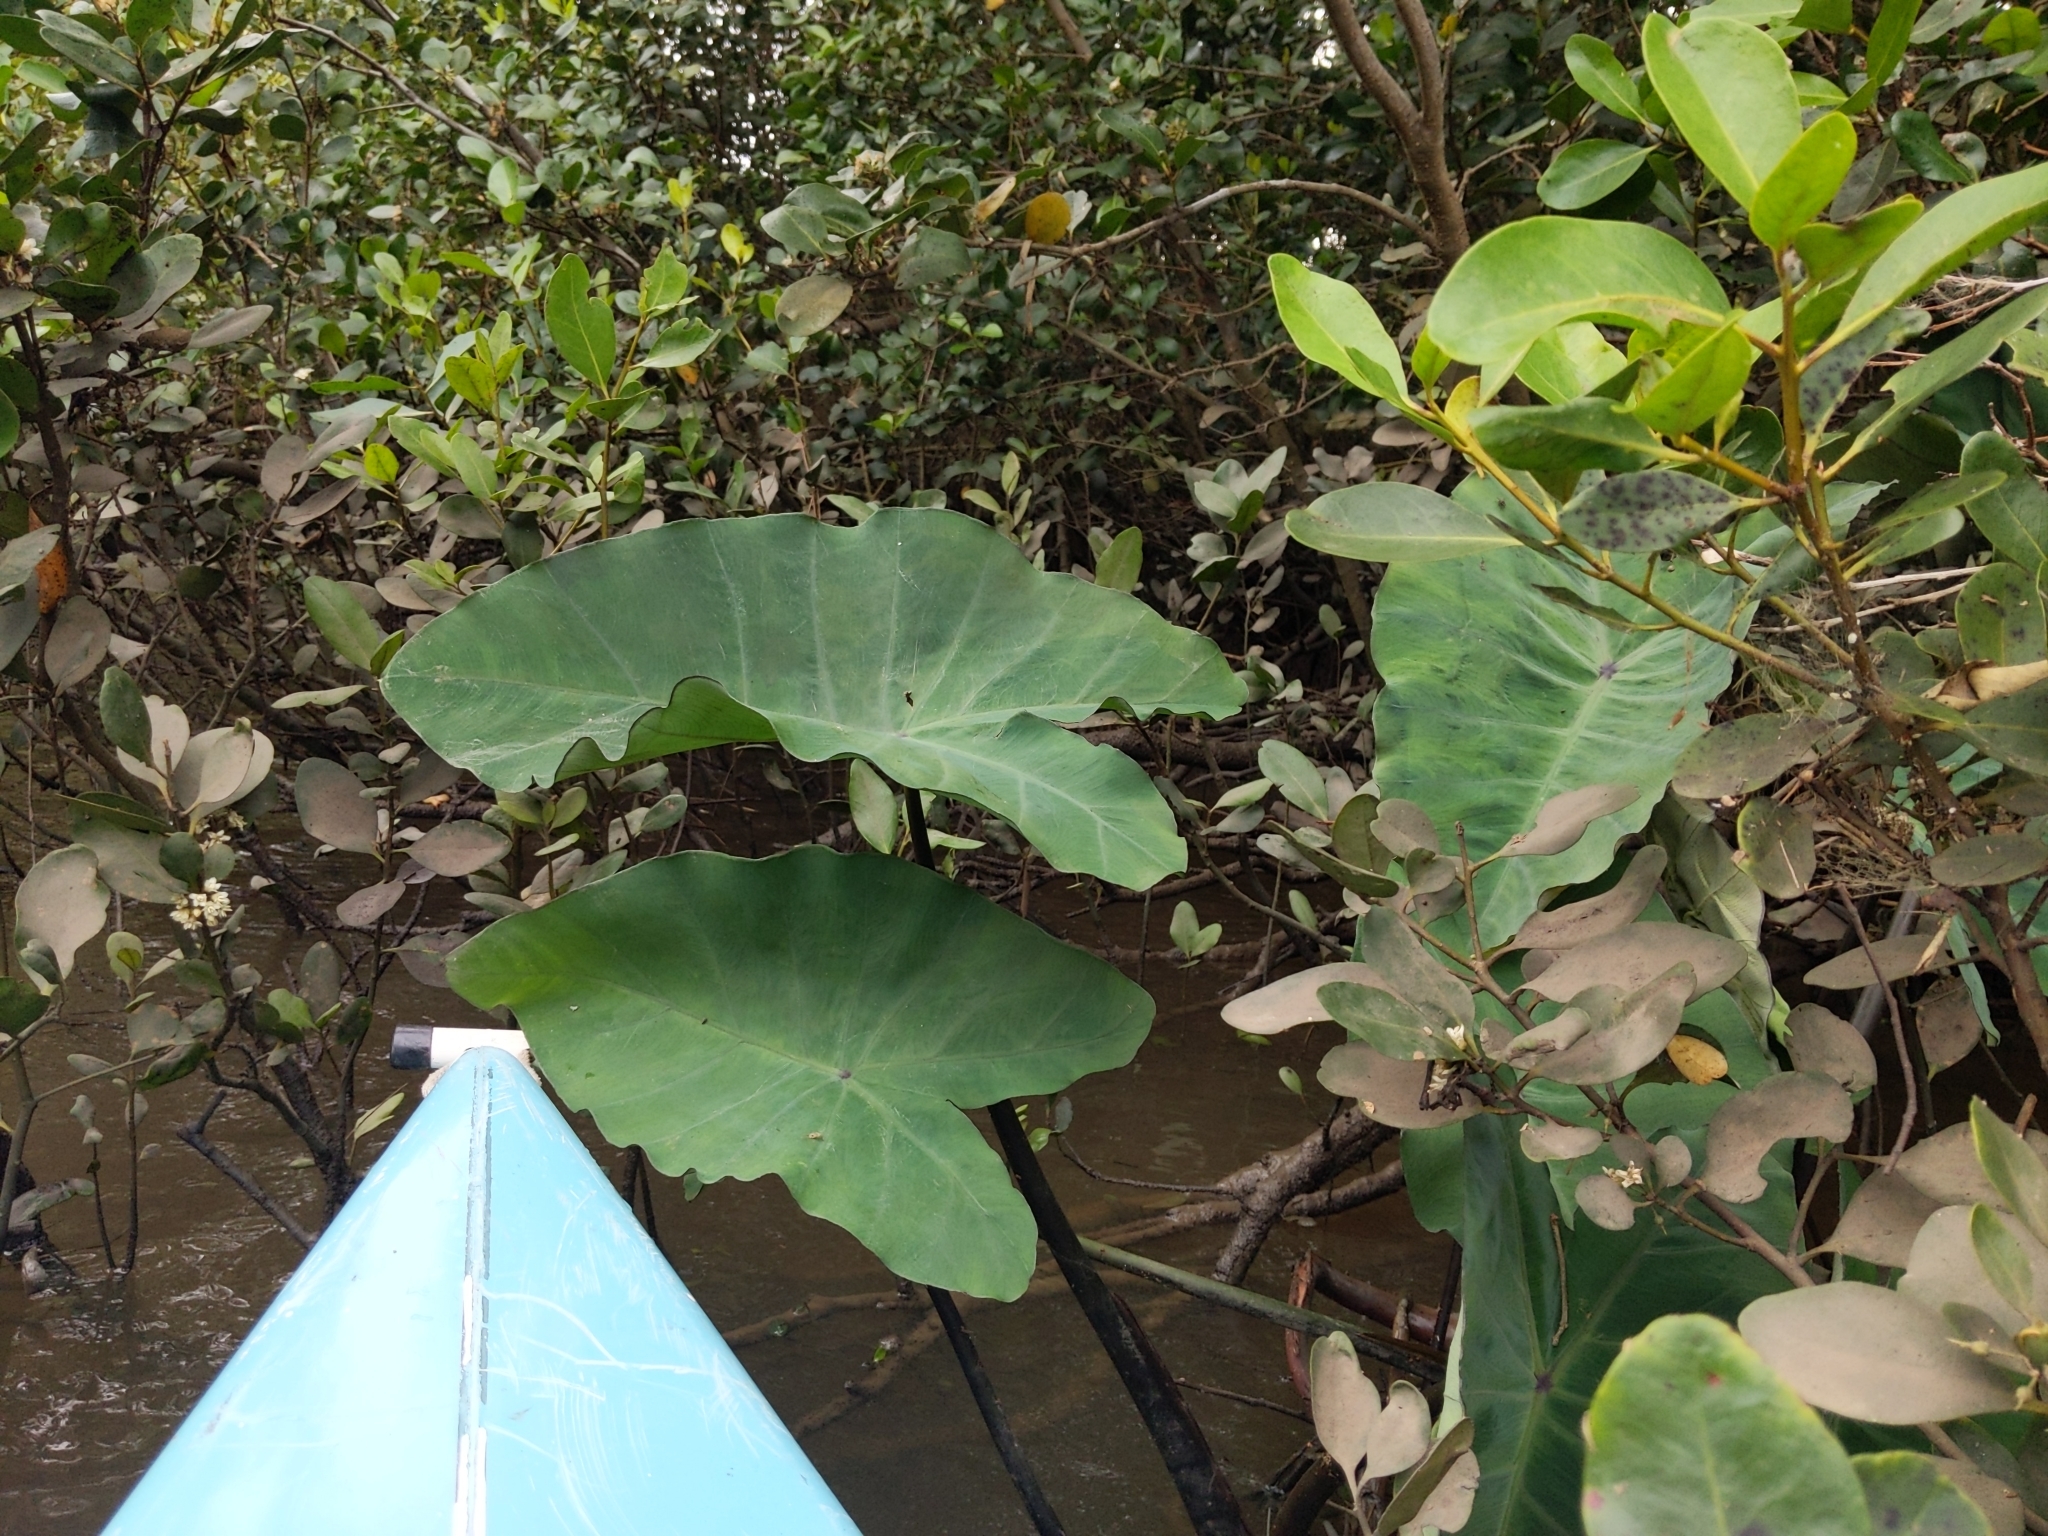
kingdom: Plantae
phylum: Tracheophyta
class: Liliopsida
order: Alismatales
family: Araceae
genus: Colocasia
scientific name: Colocasia esculenta
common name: Taro
